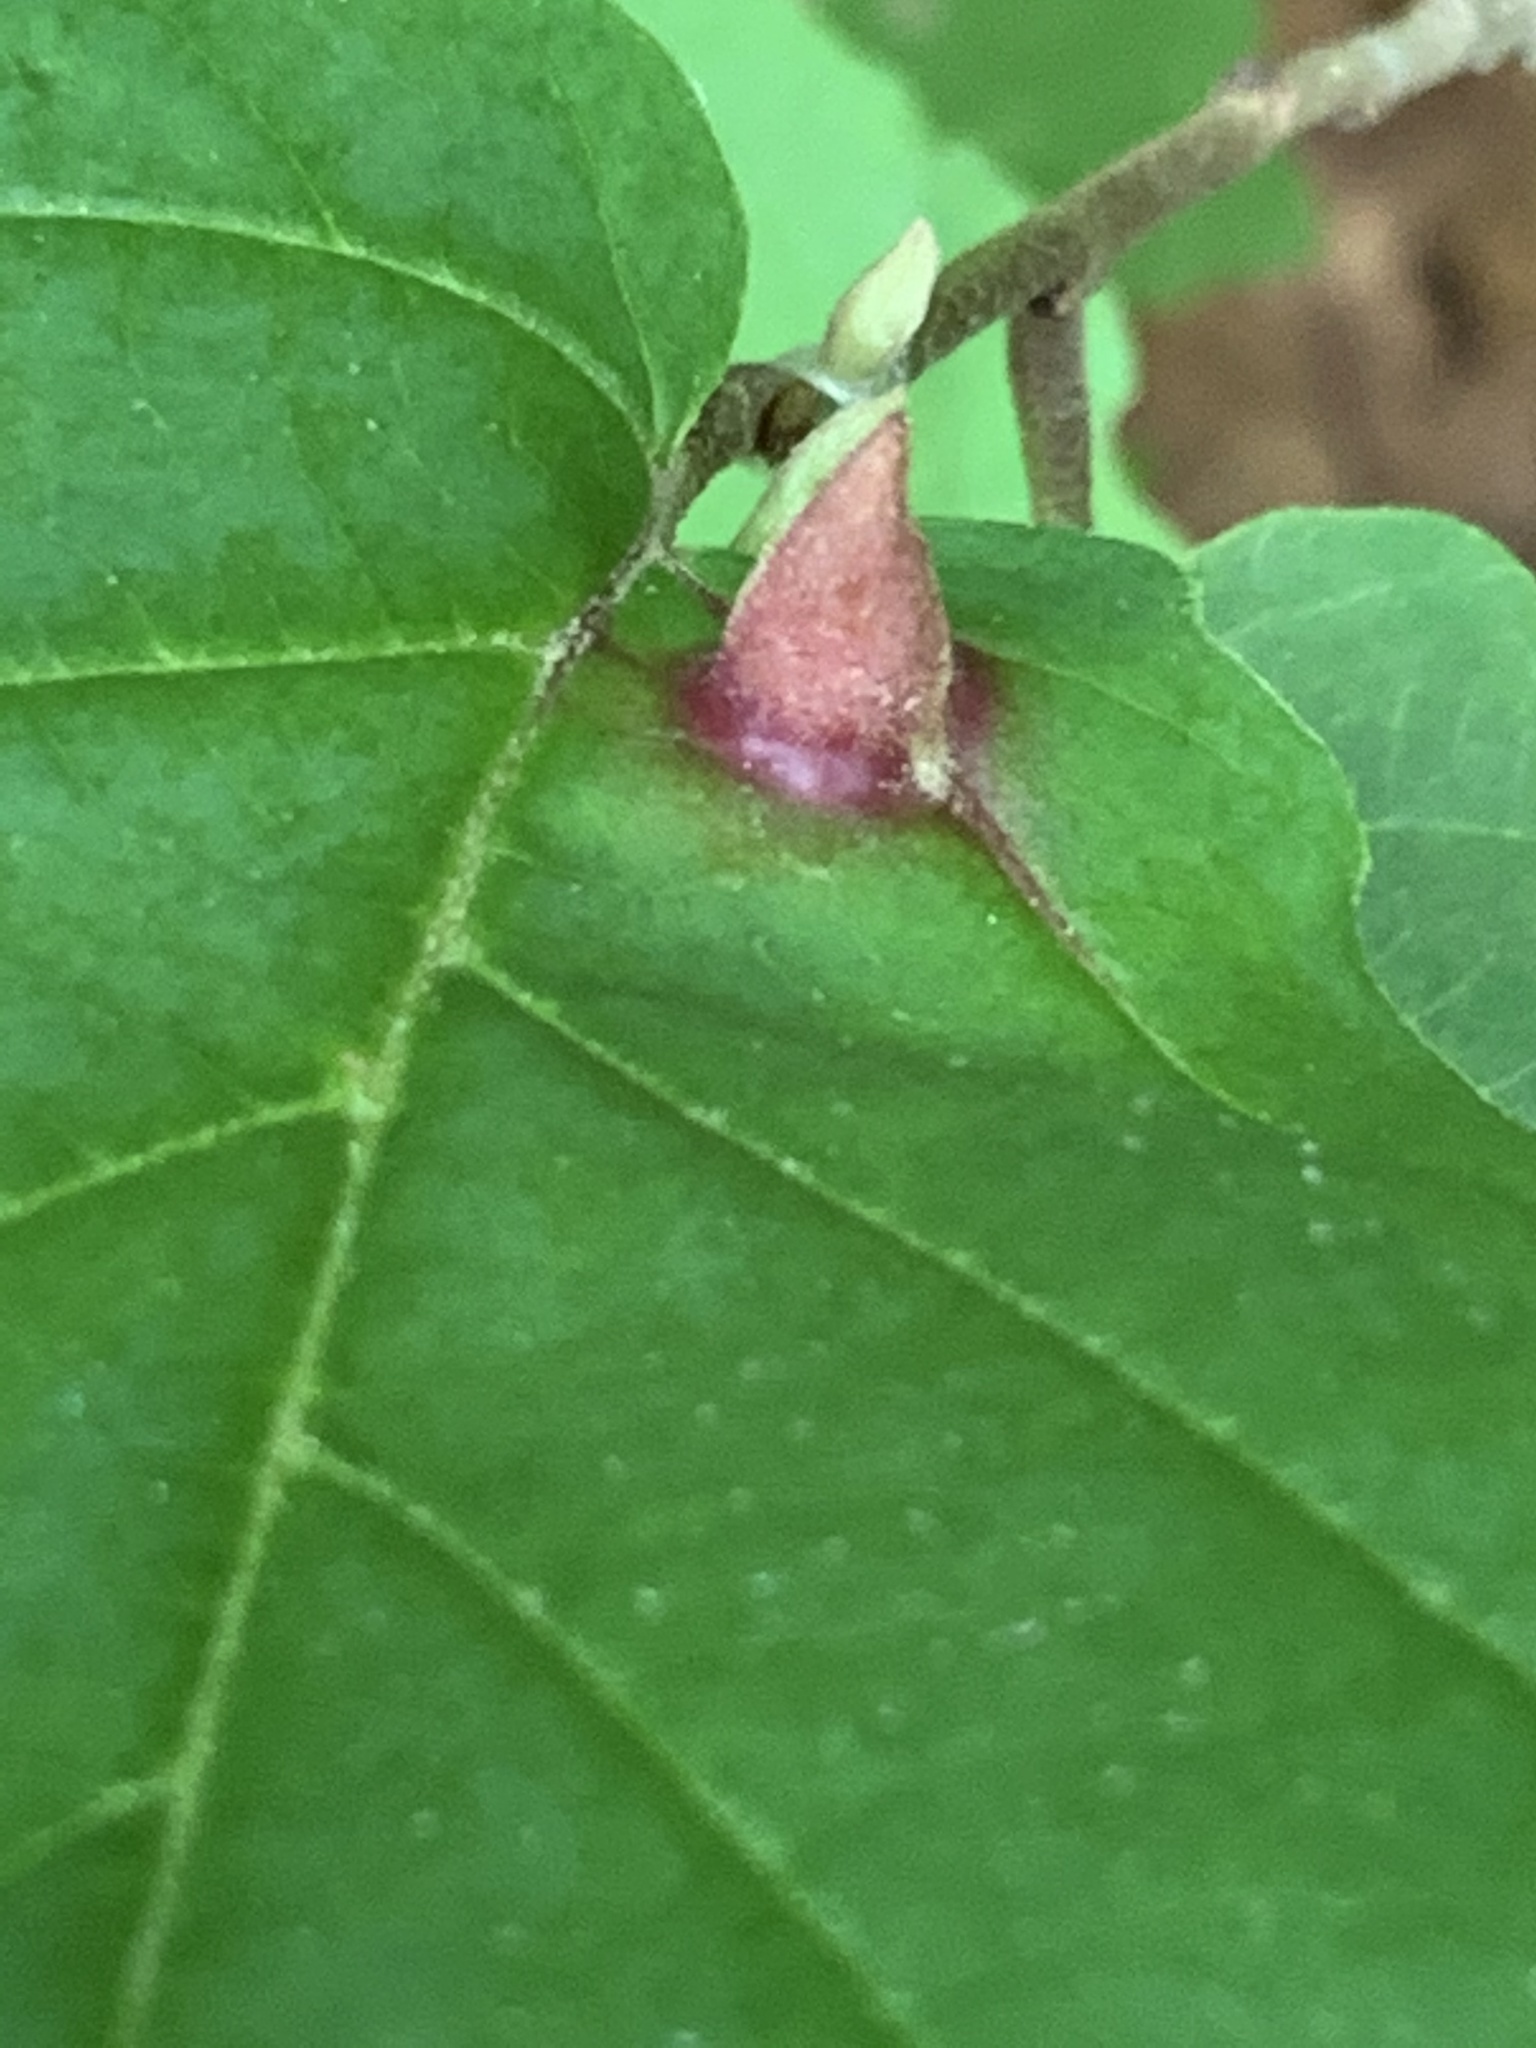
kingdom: Animalia
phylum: Arthropoda
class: Insecta
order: Hemiptera
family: Aphididae
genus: Hormaphis
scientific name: Hormaphis hamamelidis
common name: Witch-hazel cone gall aphid
